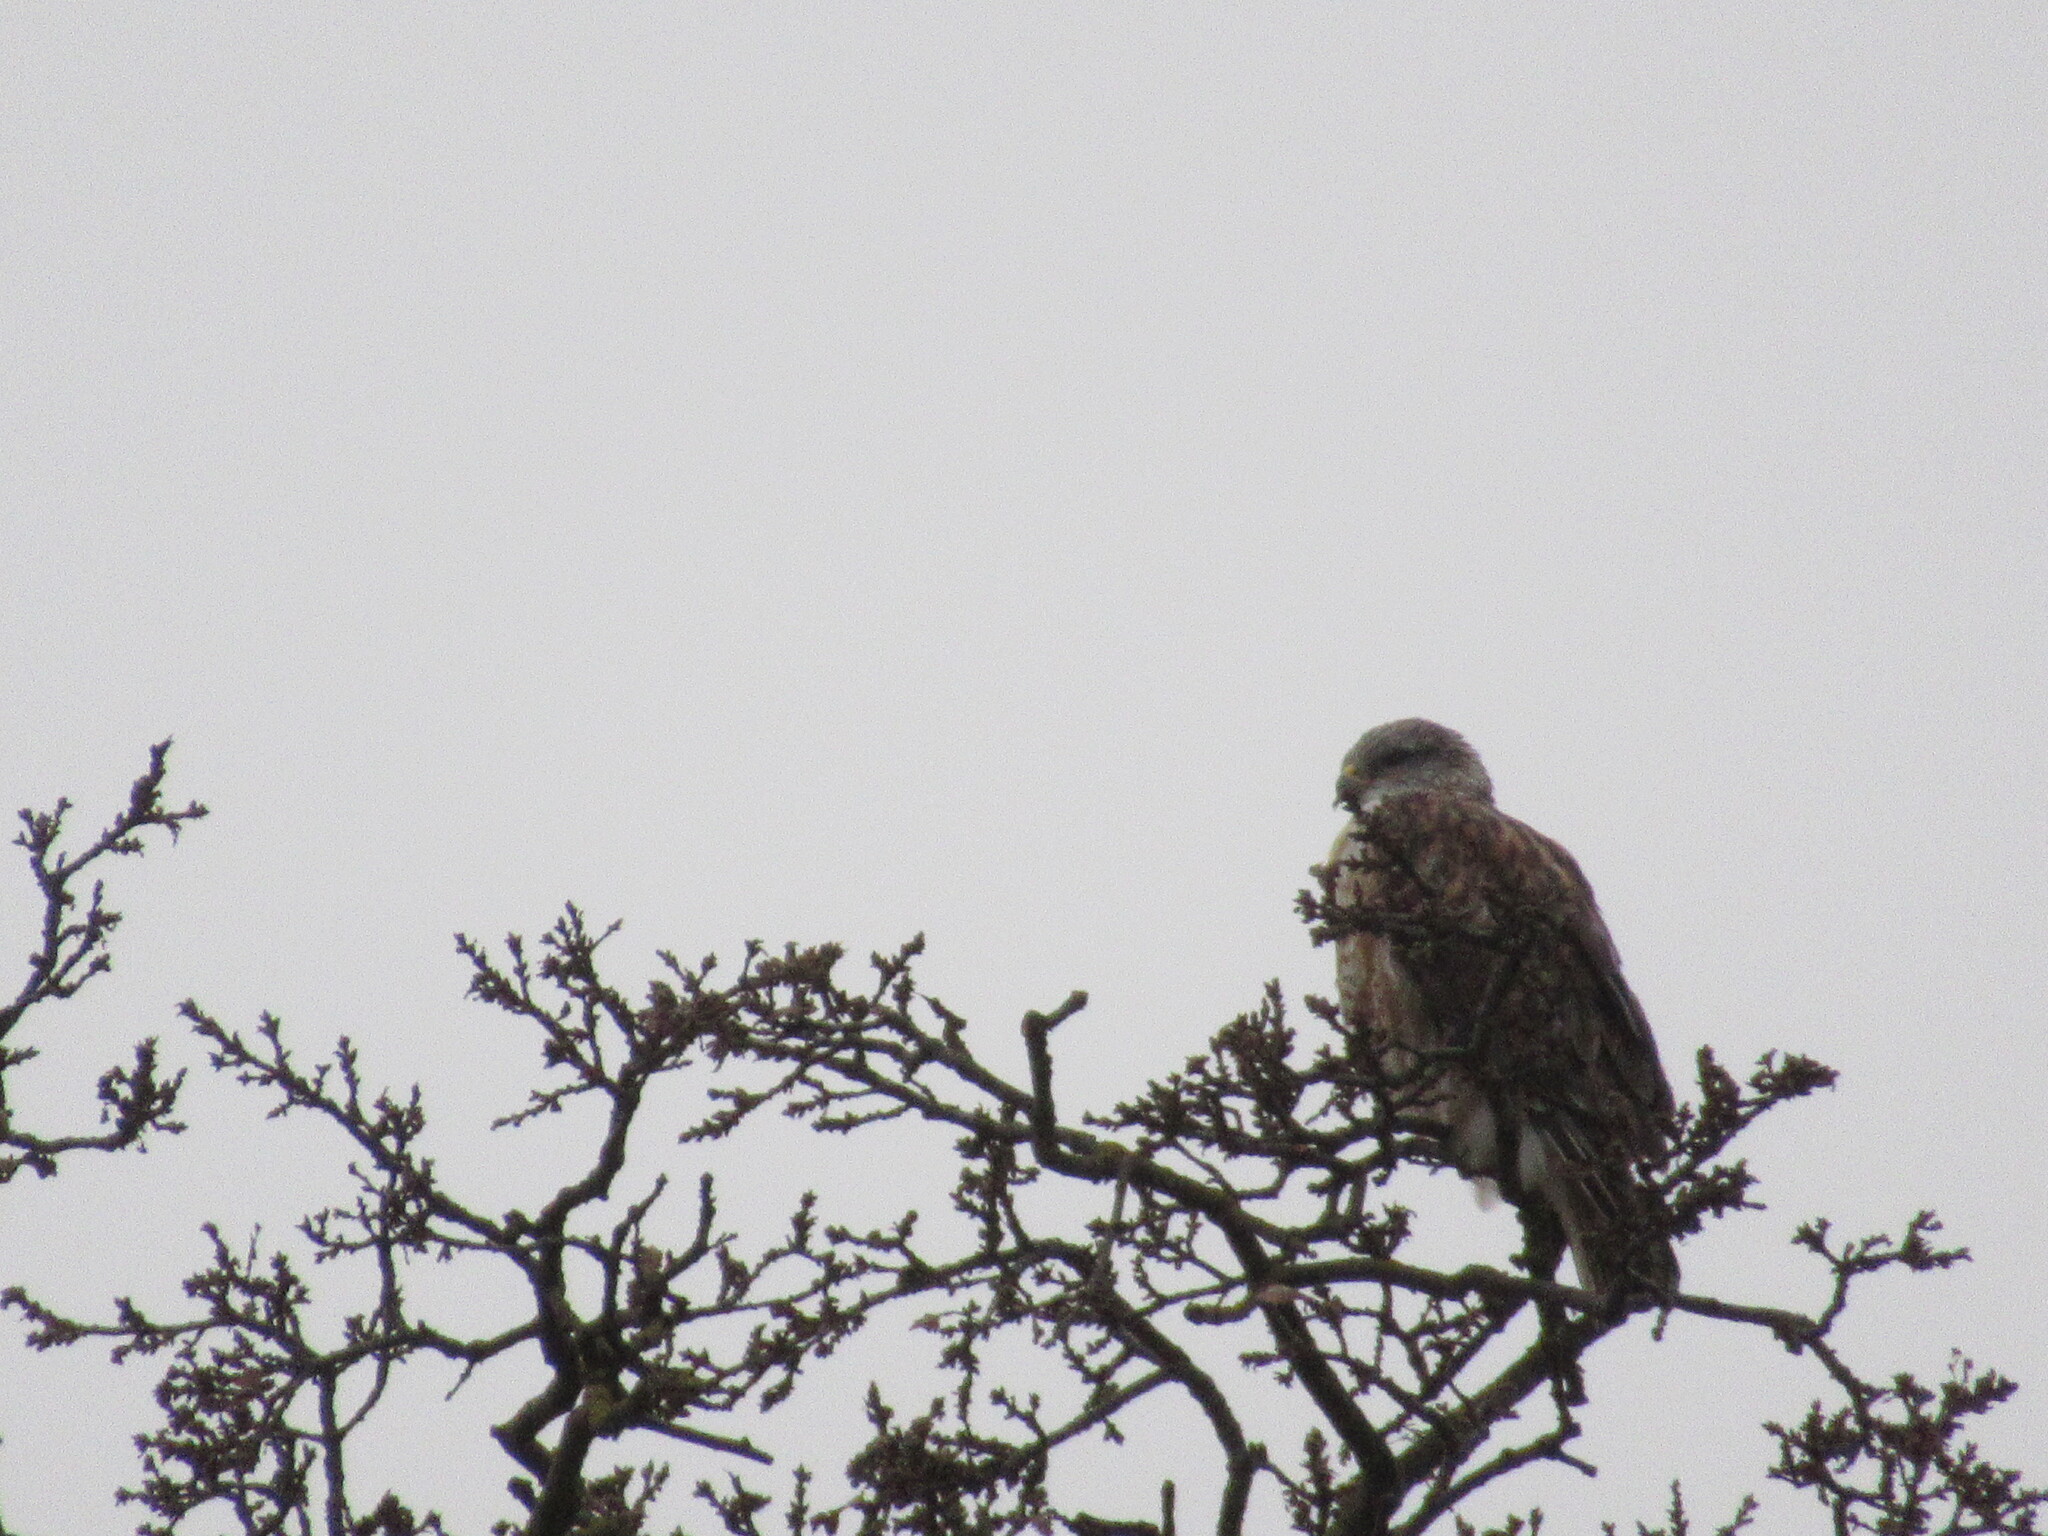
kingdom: Animalia
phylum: Chordata
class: Aves
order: Accipitriformes
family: Accipitridae
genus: Buteo
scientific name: Buteo regalis
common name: Ferruginous hawk
